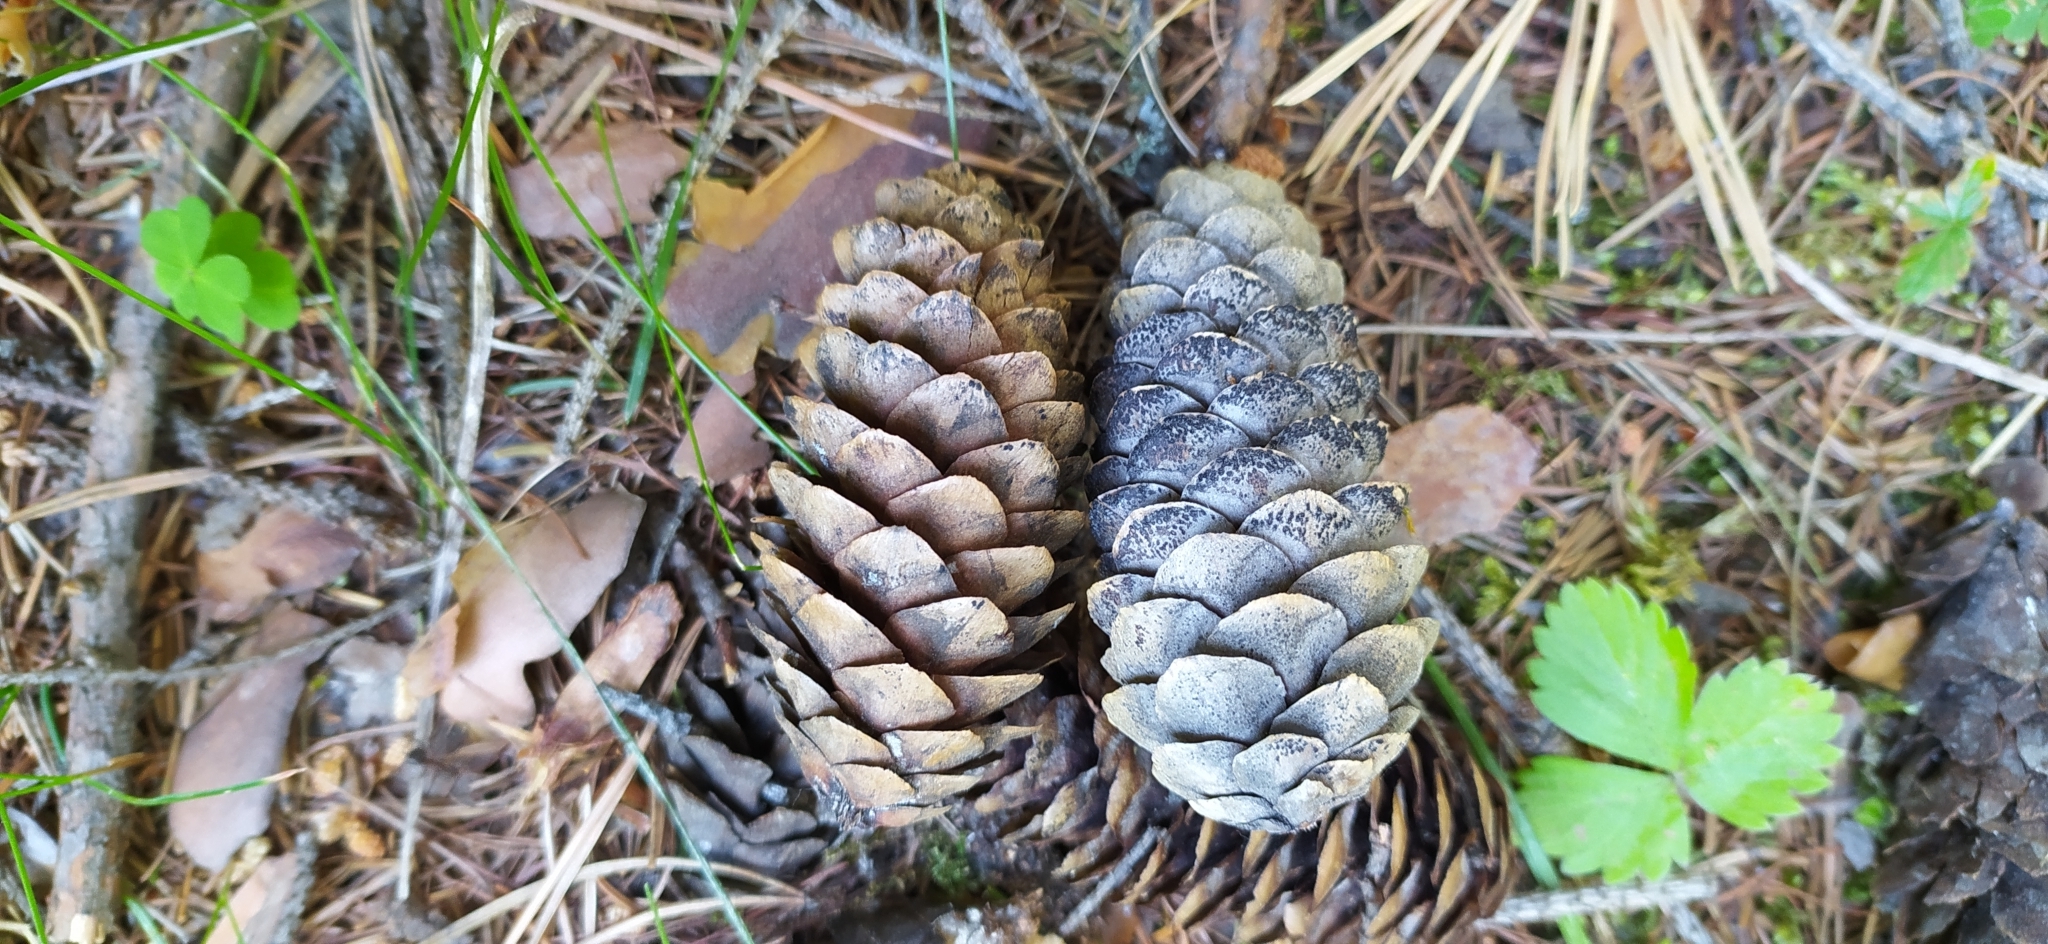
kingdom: Plantae
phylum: Tracheophyta
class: Pinopsida
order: Pinales
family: Pinaceae
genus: Picea
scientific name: Picea obovata
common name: Siberian spruce
